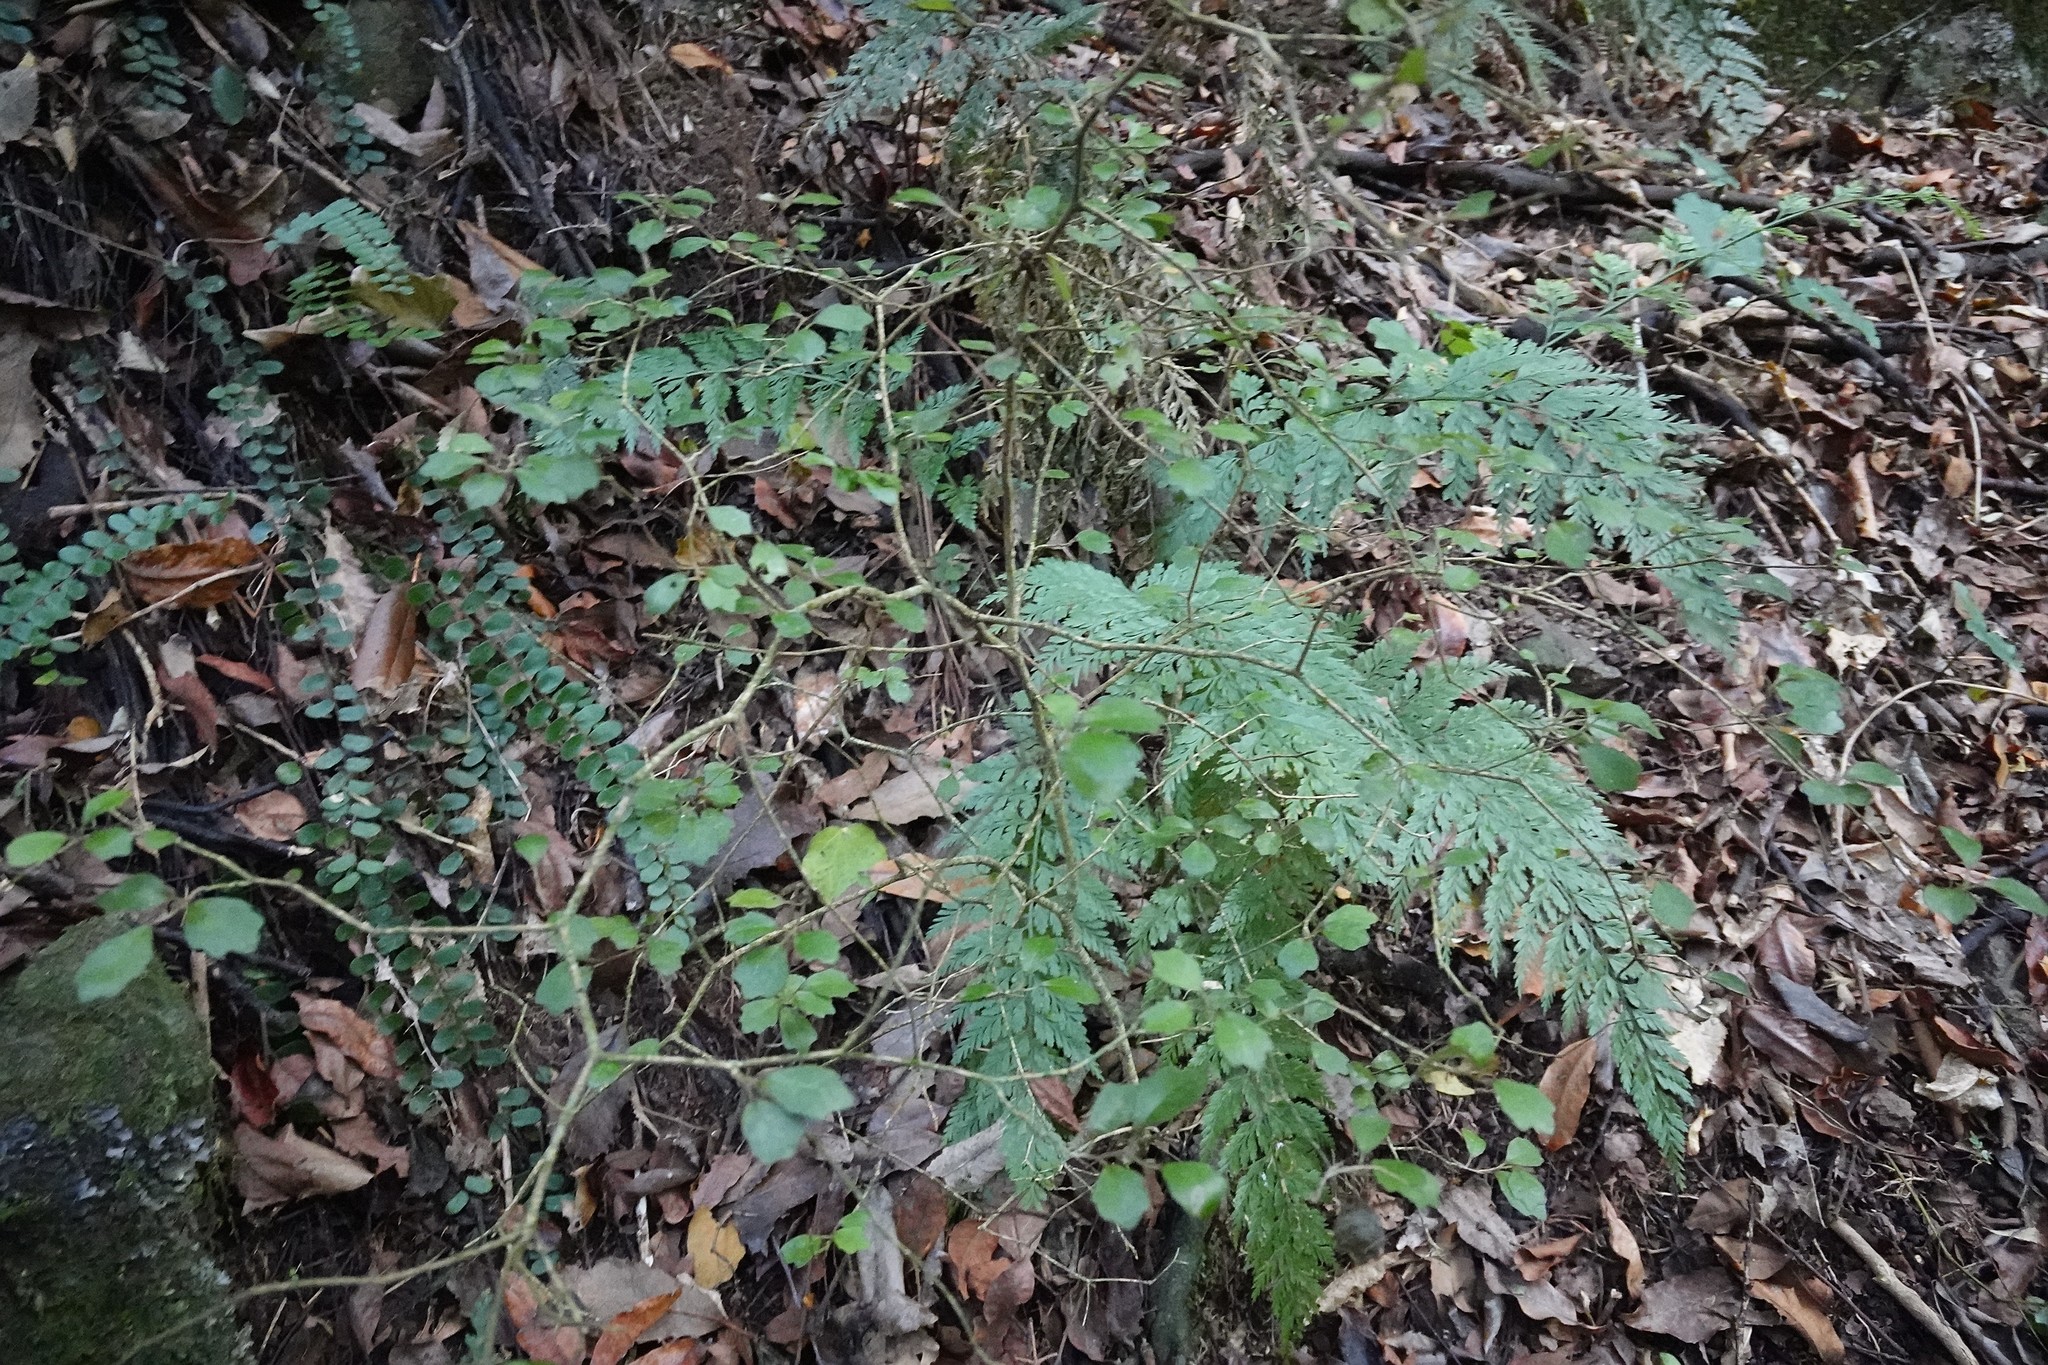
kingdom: Plantae
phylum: Tracheophyta
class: Magnoliopsida
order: Apiales
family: Pennantiaceae
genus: Pennantia
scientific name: Pennantia corymbosa
